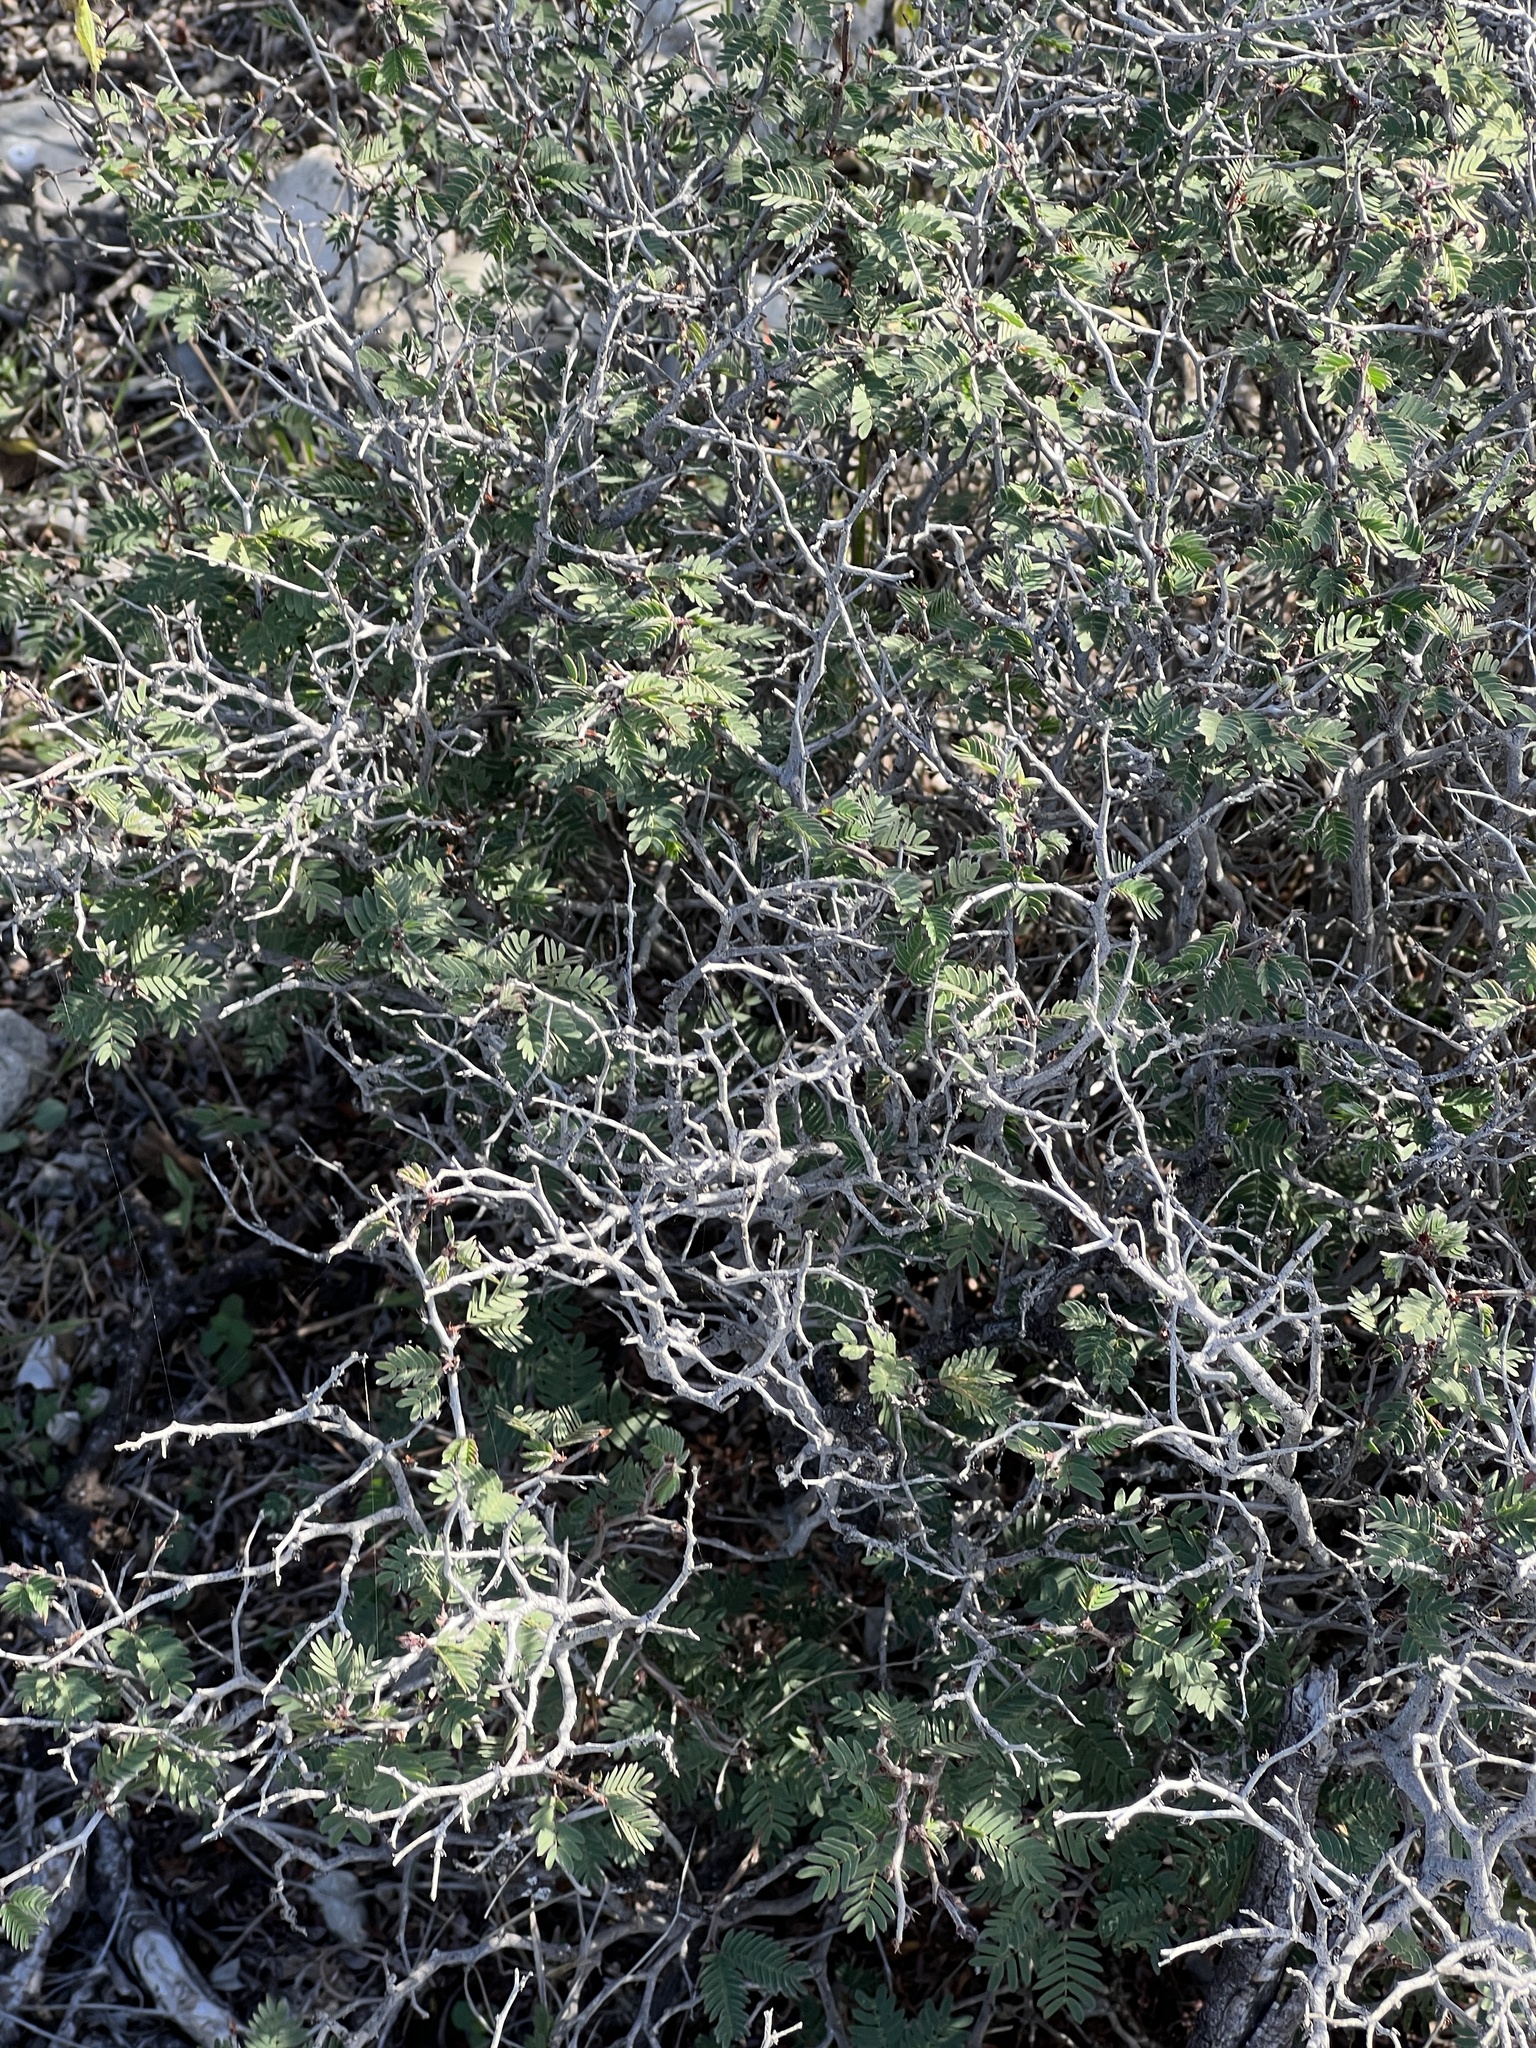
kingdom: Plantae
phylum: Tracheophyta
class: Magnoliopsida
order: Fabales
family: Fabaceae
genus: Calliandra
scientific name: Calliandra conferta
